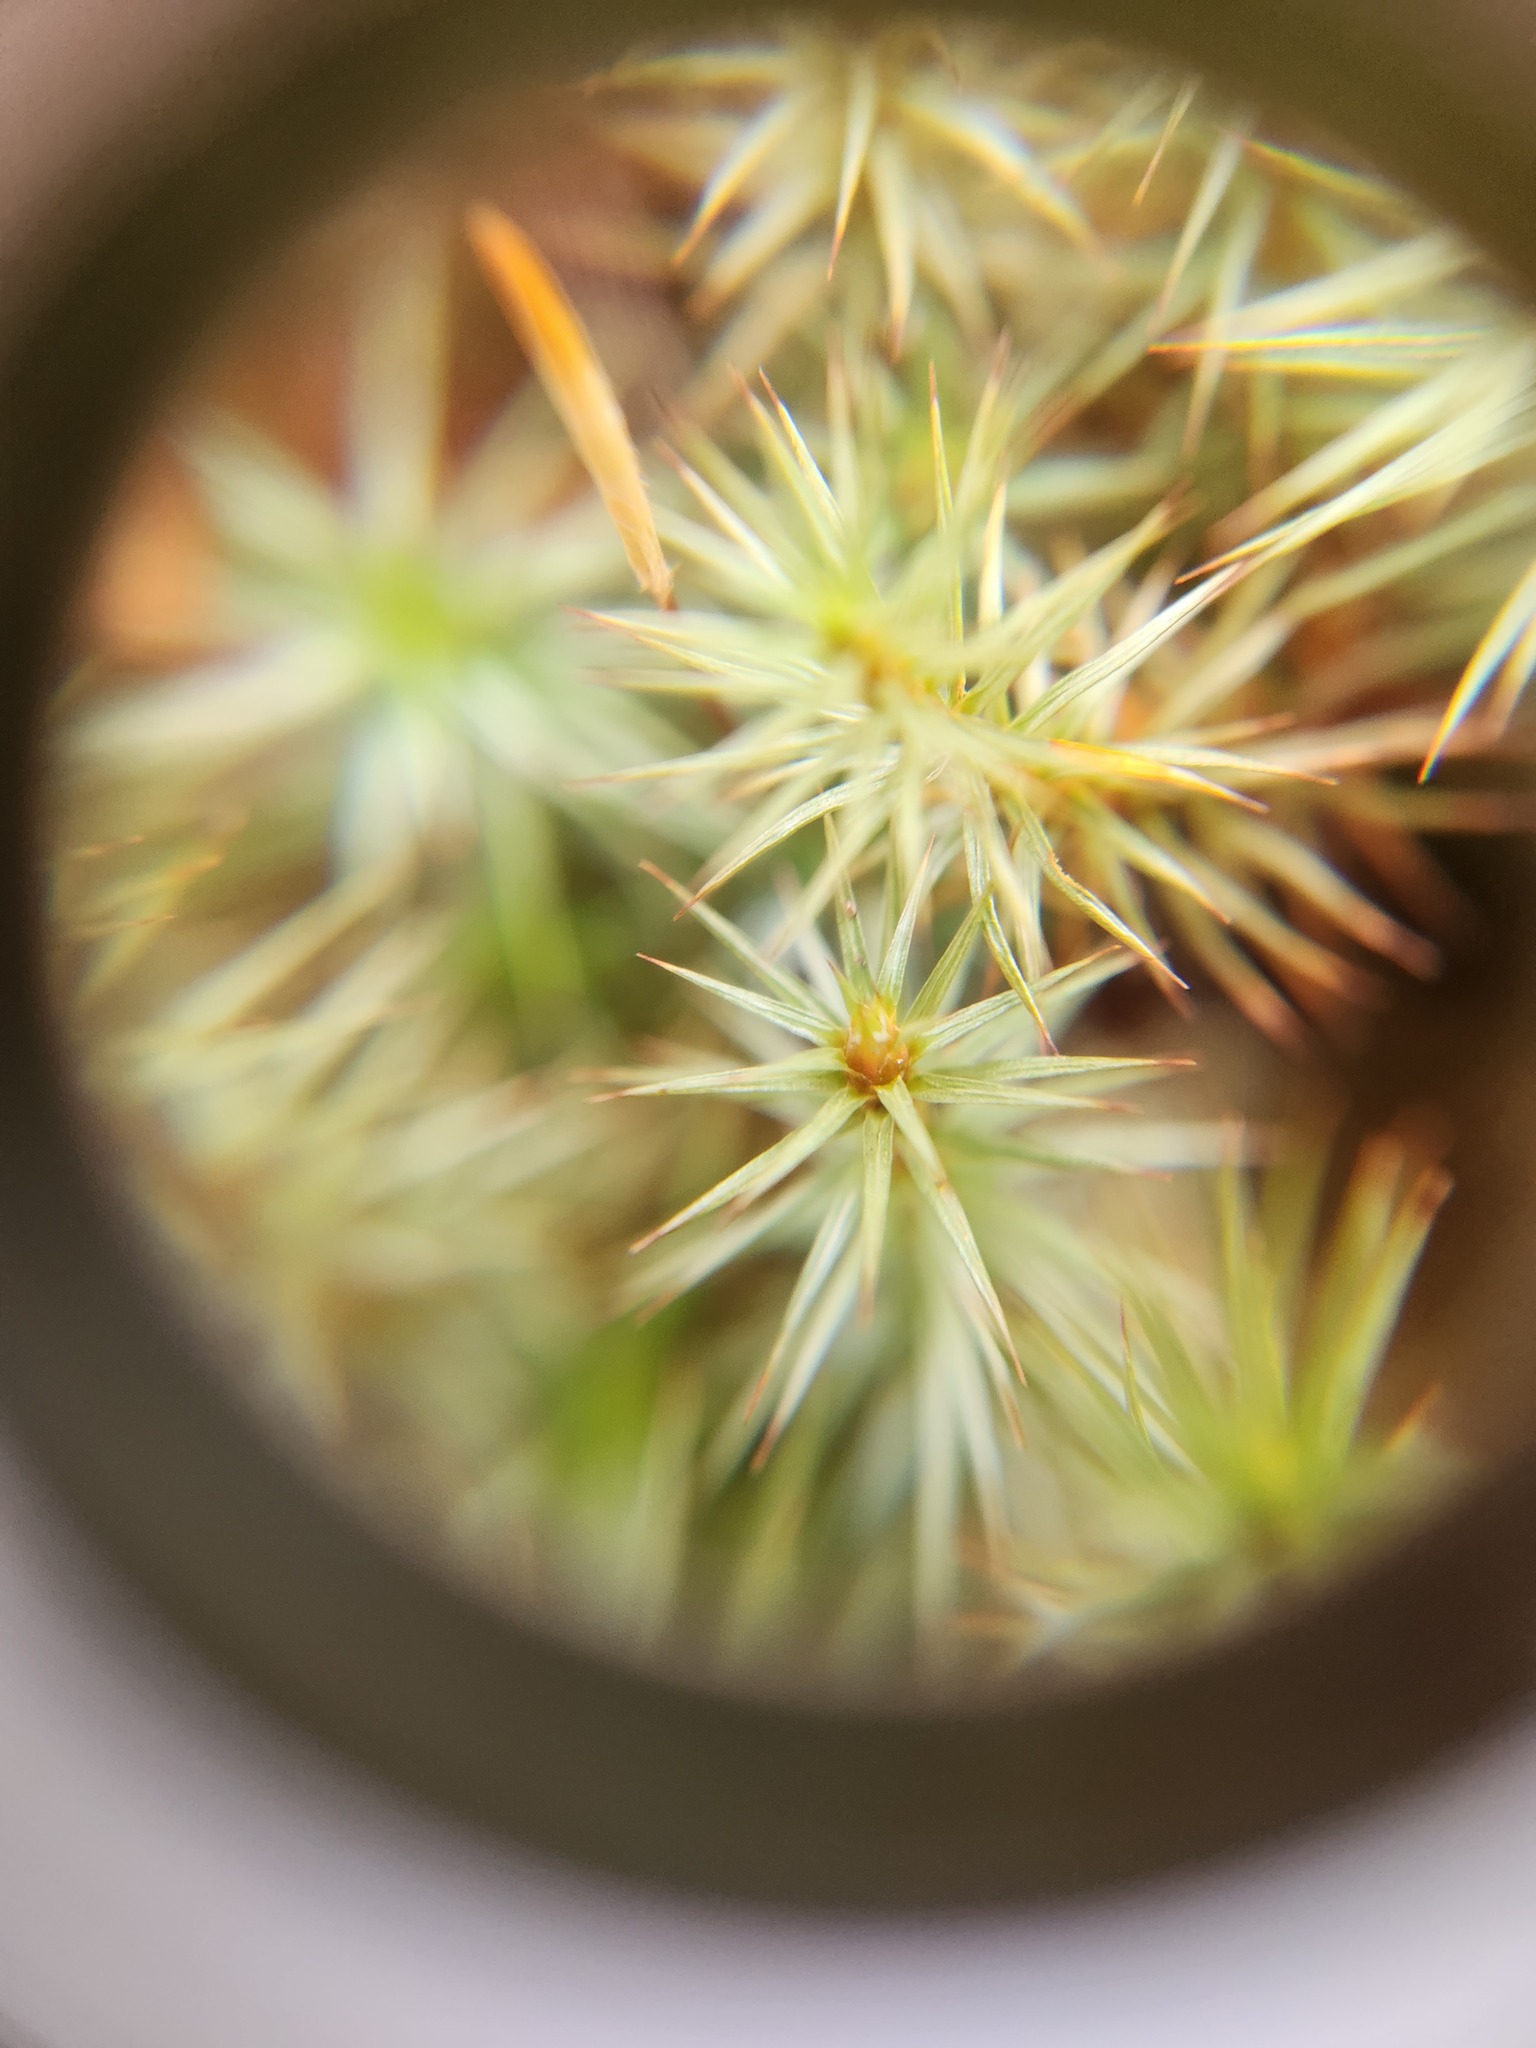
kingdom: Plantae
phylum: Bryophyta
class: Polytrichopsida
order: Polytrichales
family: Polytrichaceae
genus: Polytrichum
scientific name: Polytrichum juniperinum
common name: Juniper haircap moss
